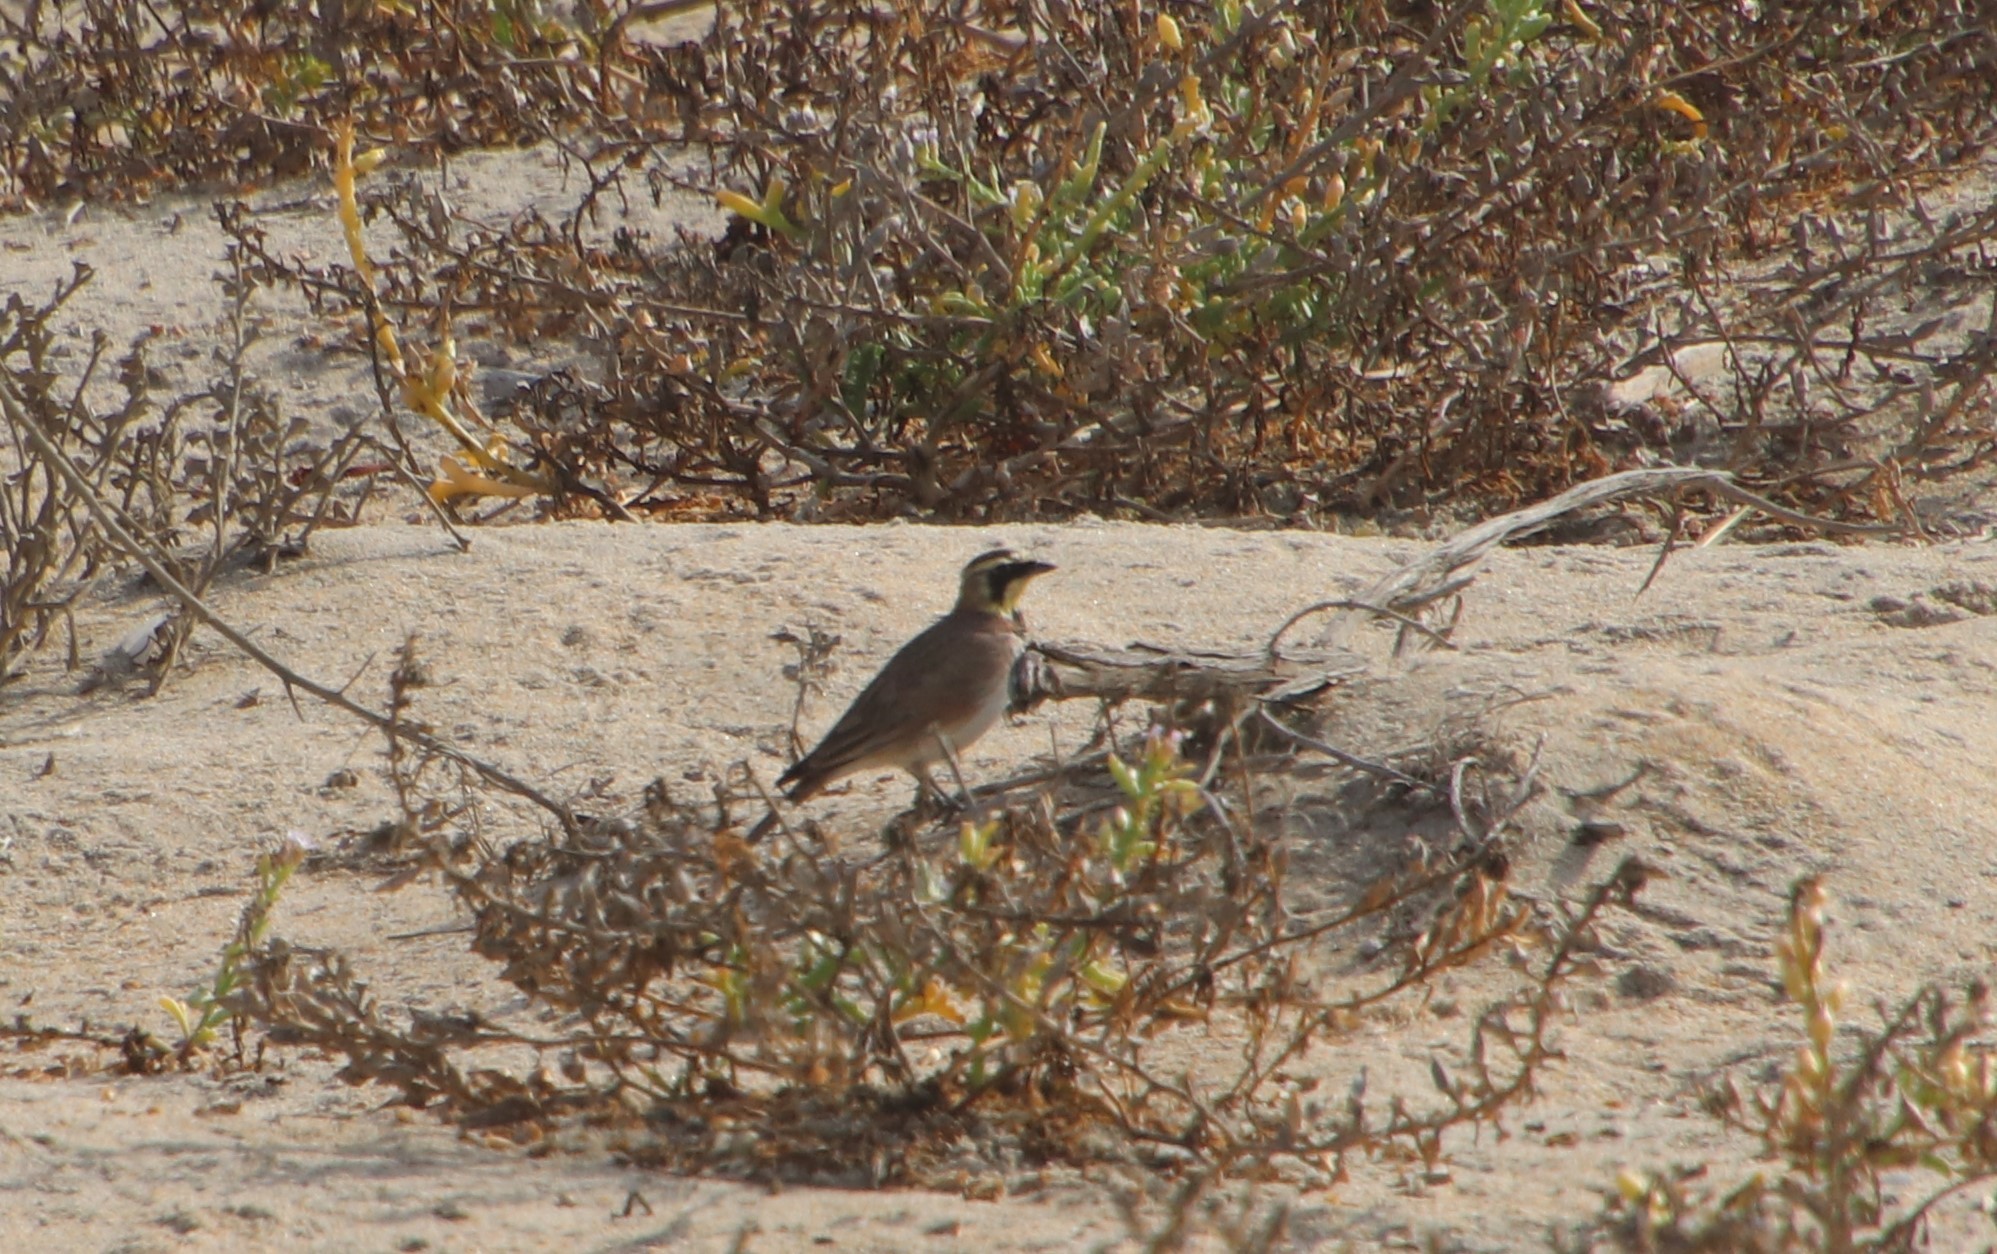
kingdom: Animalia
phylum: Chordata
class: Aves
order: Passeriformes
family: Alaudidae
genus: Eremophila
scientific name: Eremophila alpestris
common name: Horned lark
